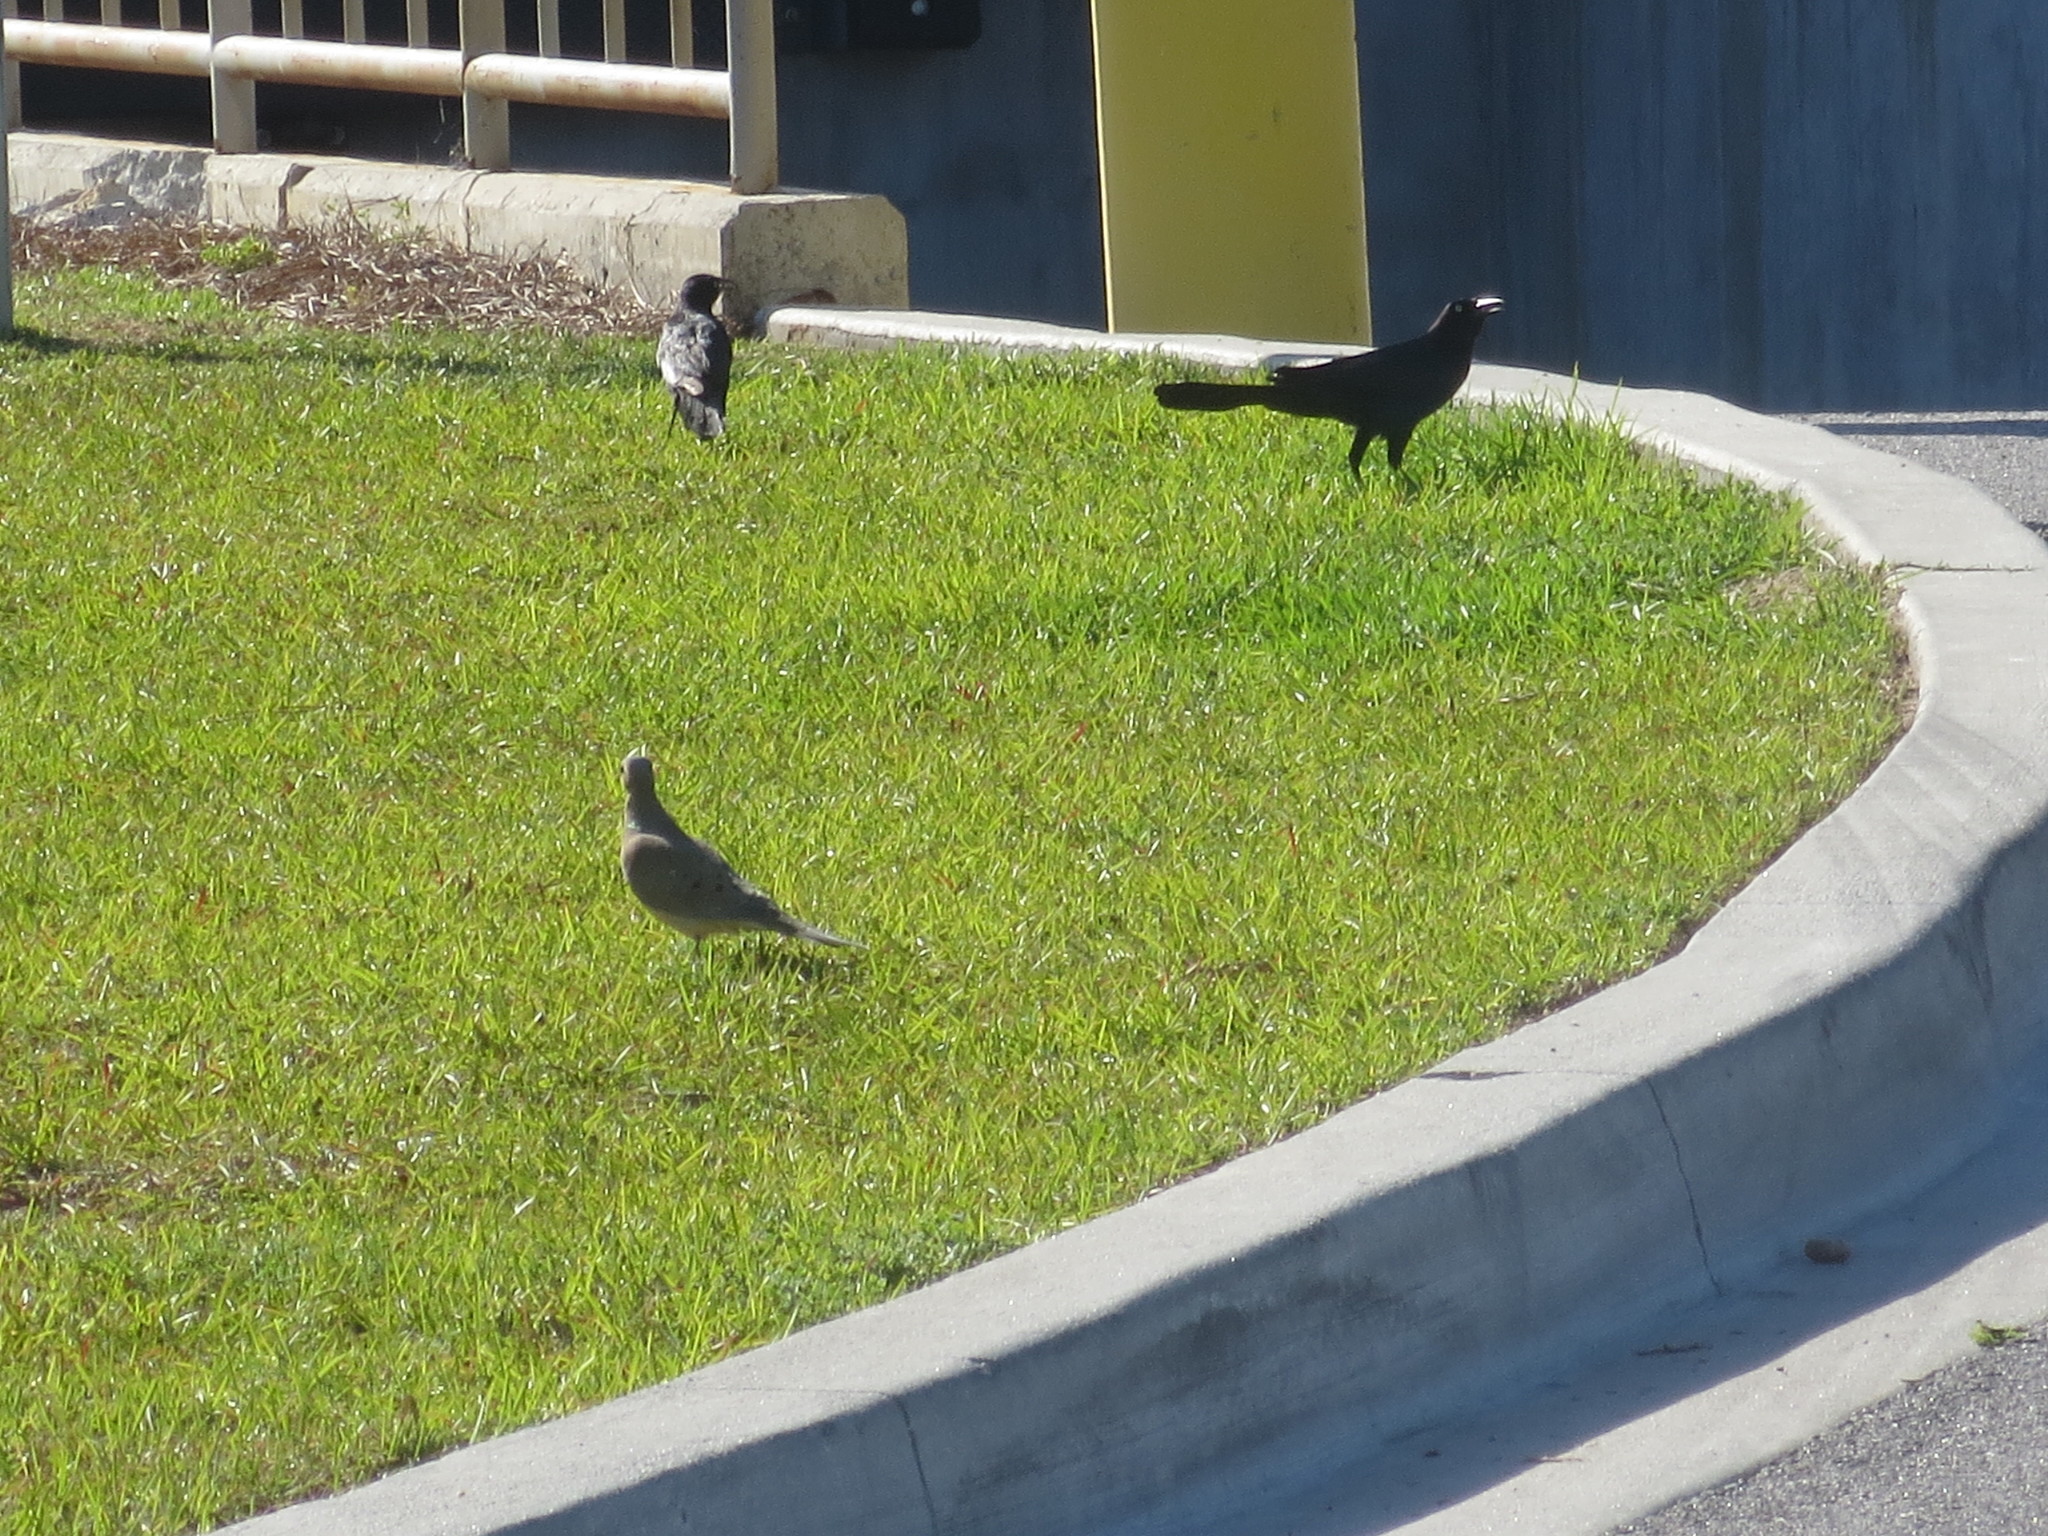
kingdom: Animalia
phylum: Chordata
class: Aves
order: Columbiformes
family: Columbidae
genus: Zenaida
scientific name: Zenaida macroura
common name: Mourning dove
